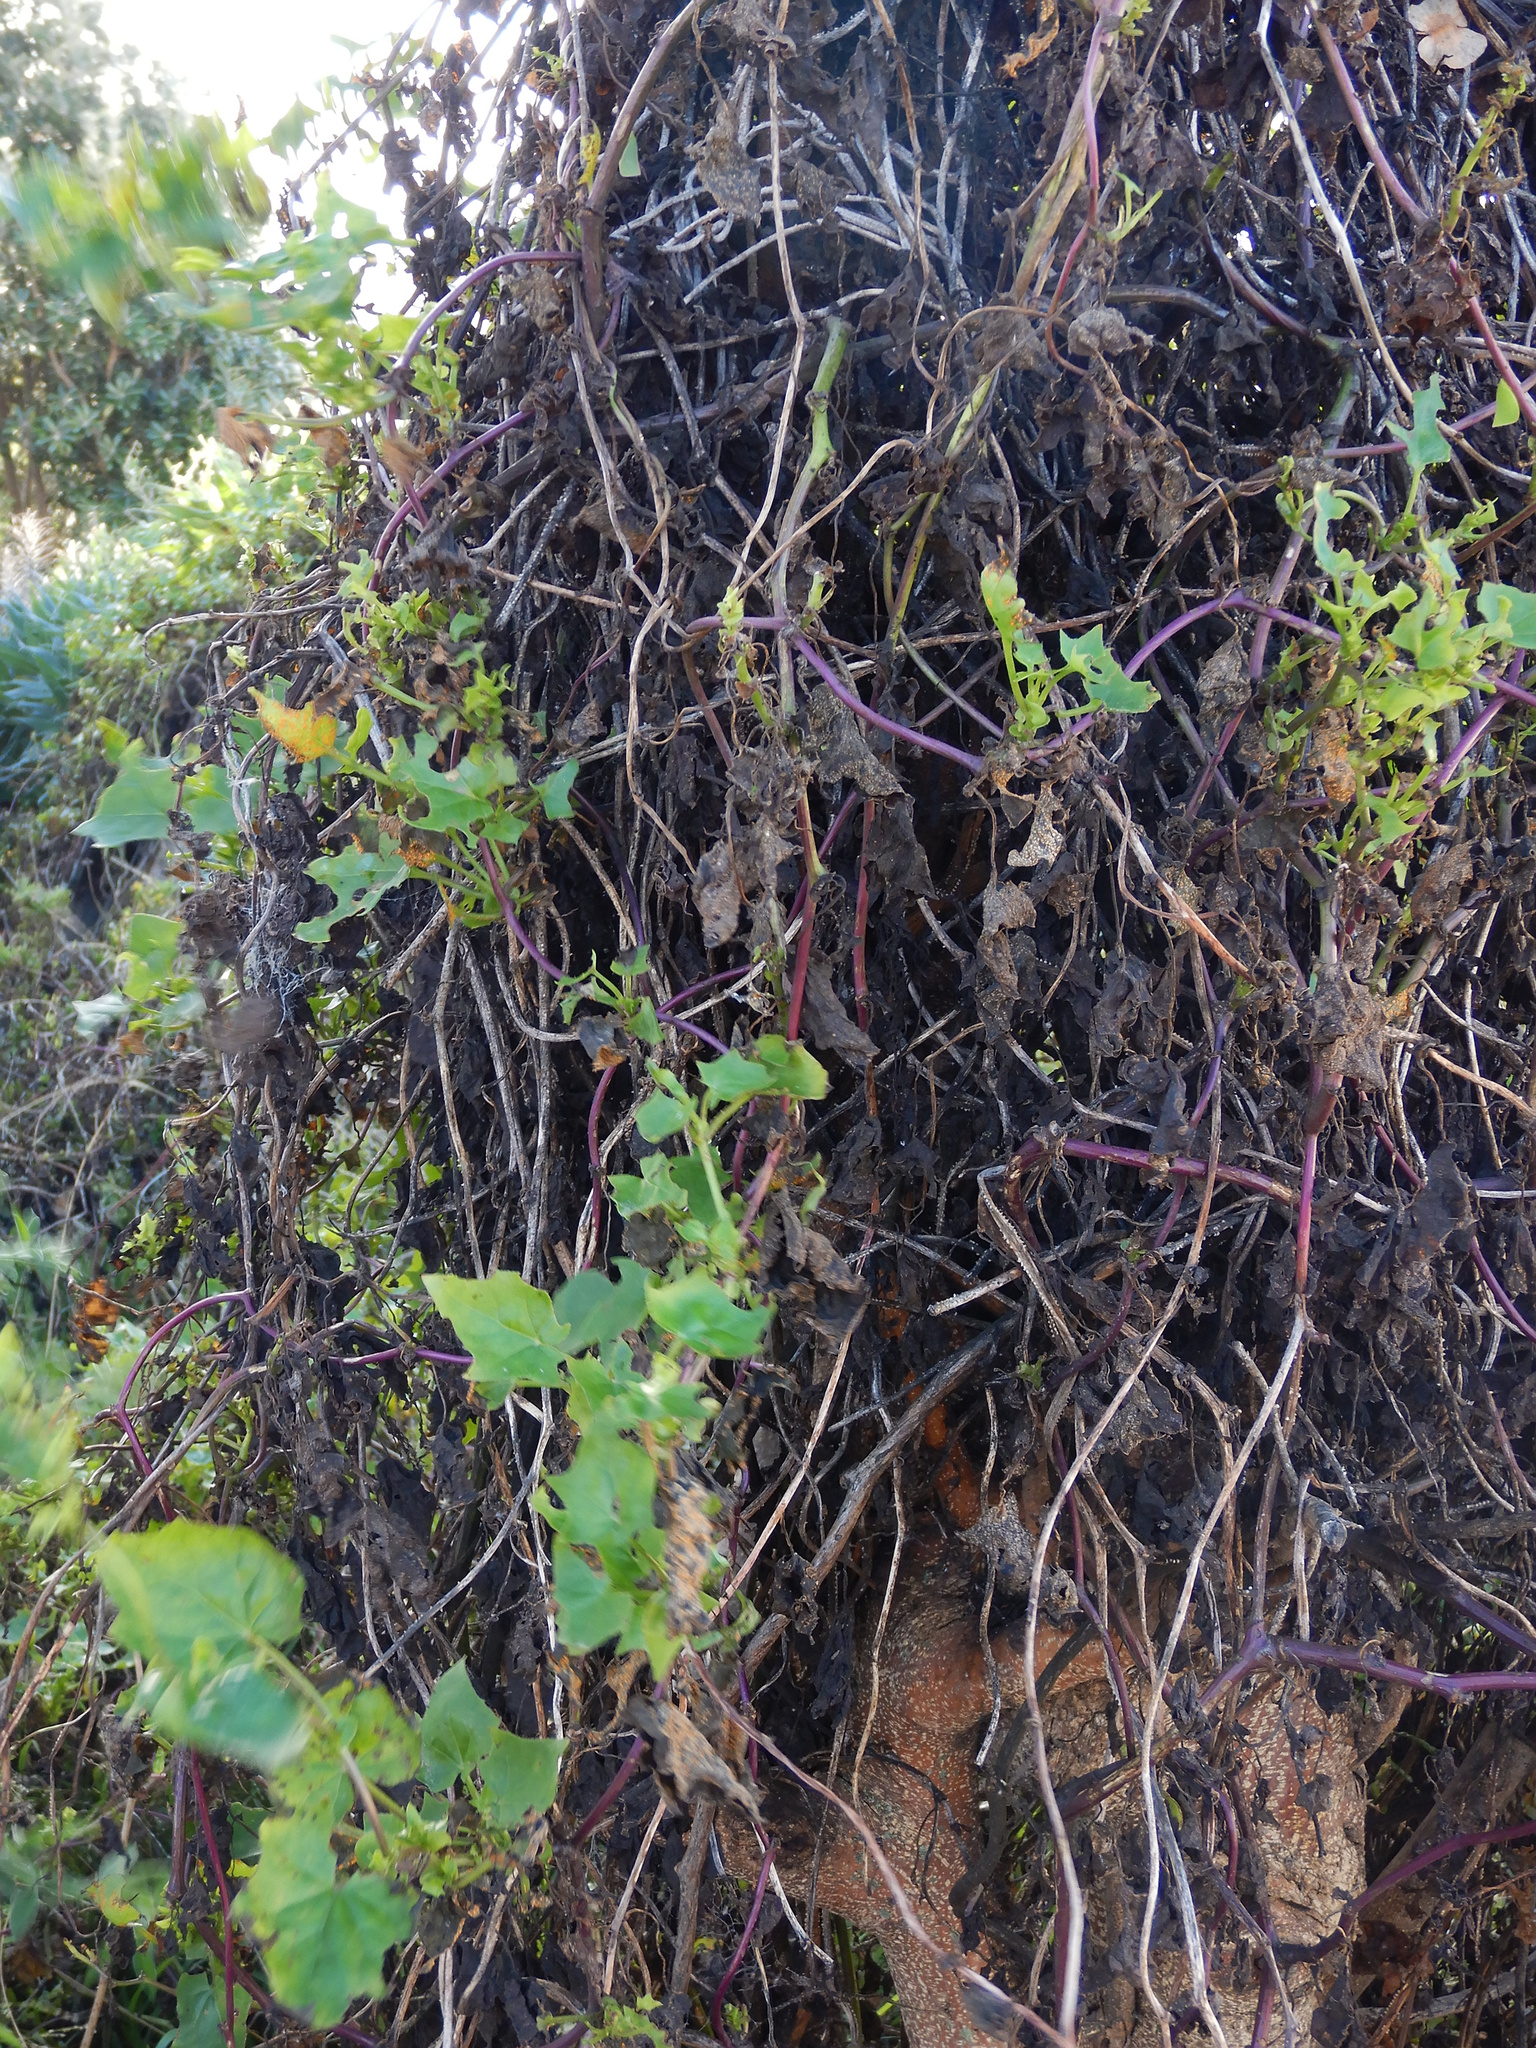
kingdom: Plantae
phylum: Tracheophyta
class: Magnoliopsida
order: Asterales
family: Asteraceae
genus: Delairea
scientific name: Delairea odorata
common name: Cape-ivy
